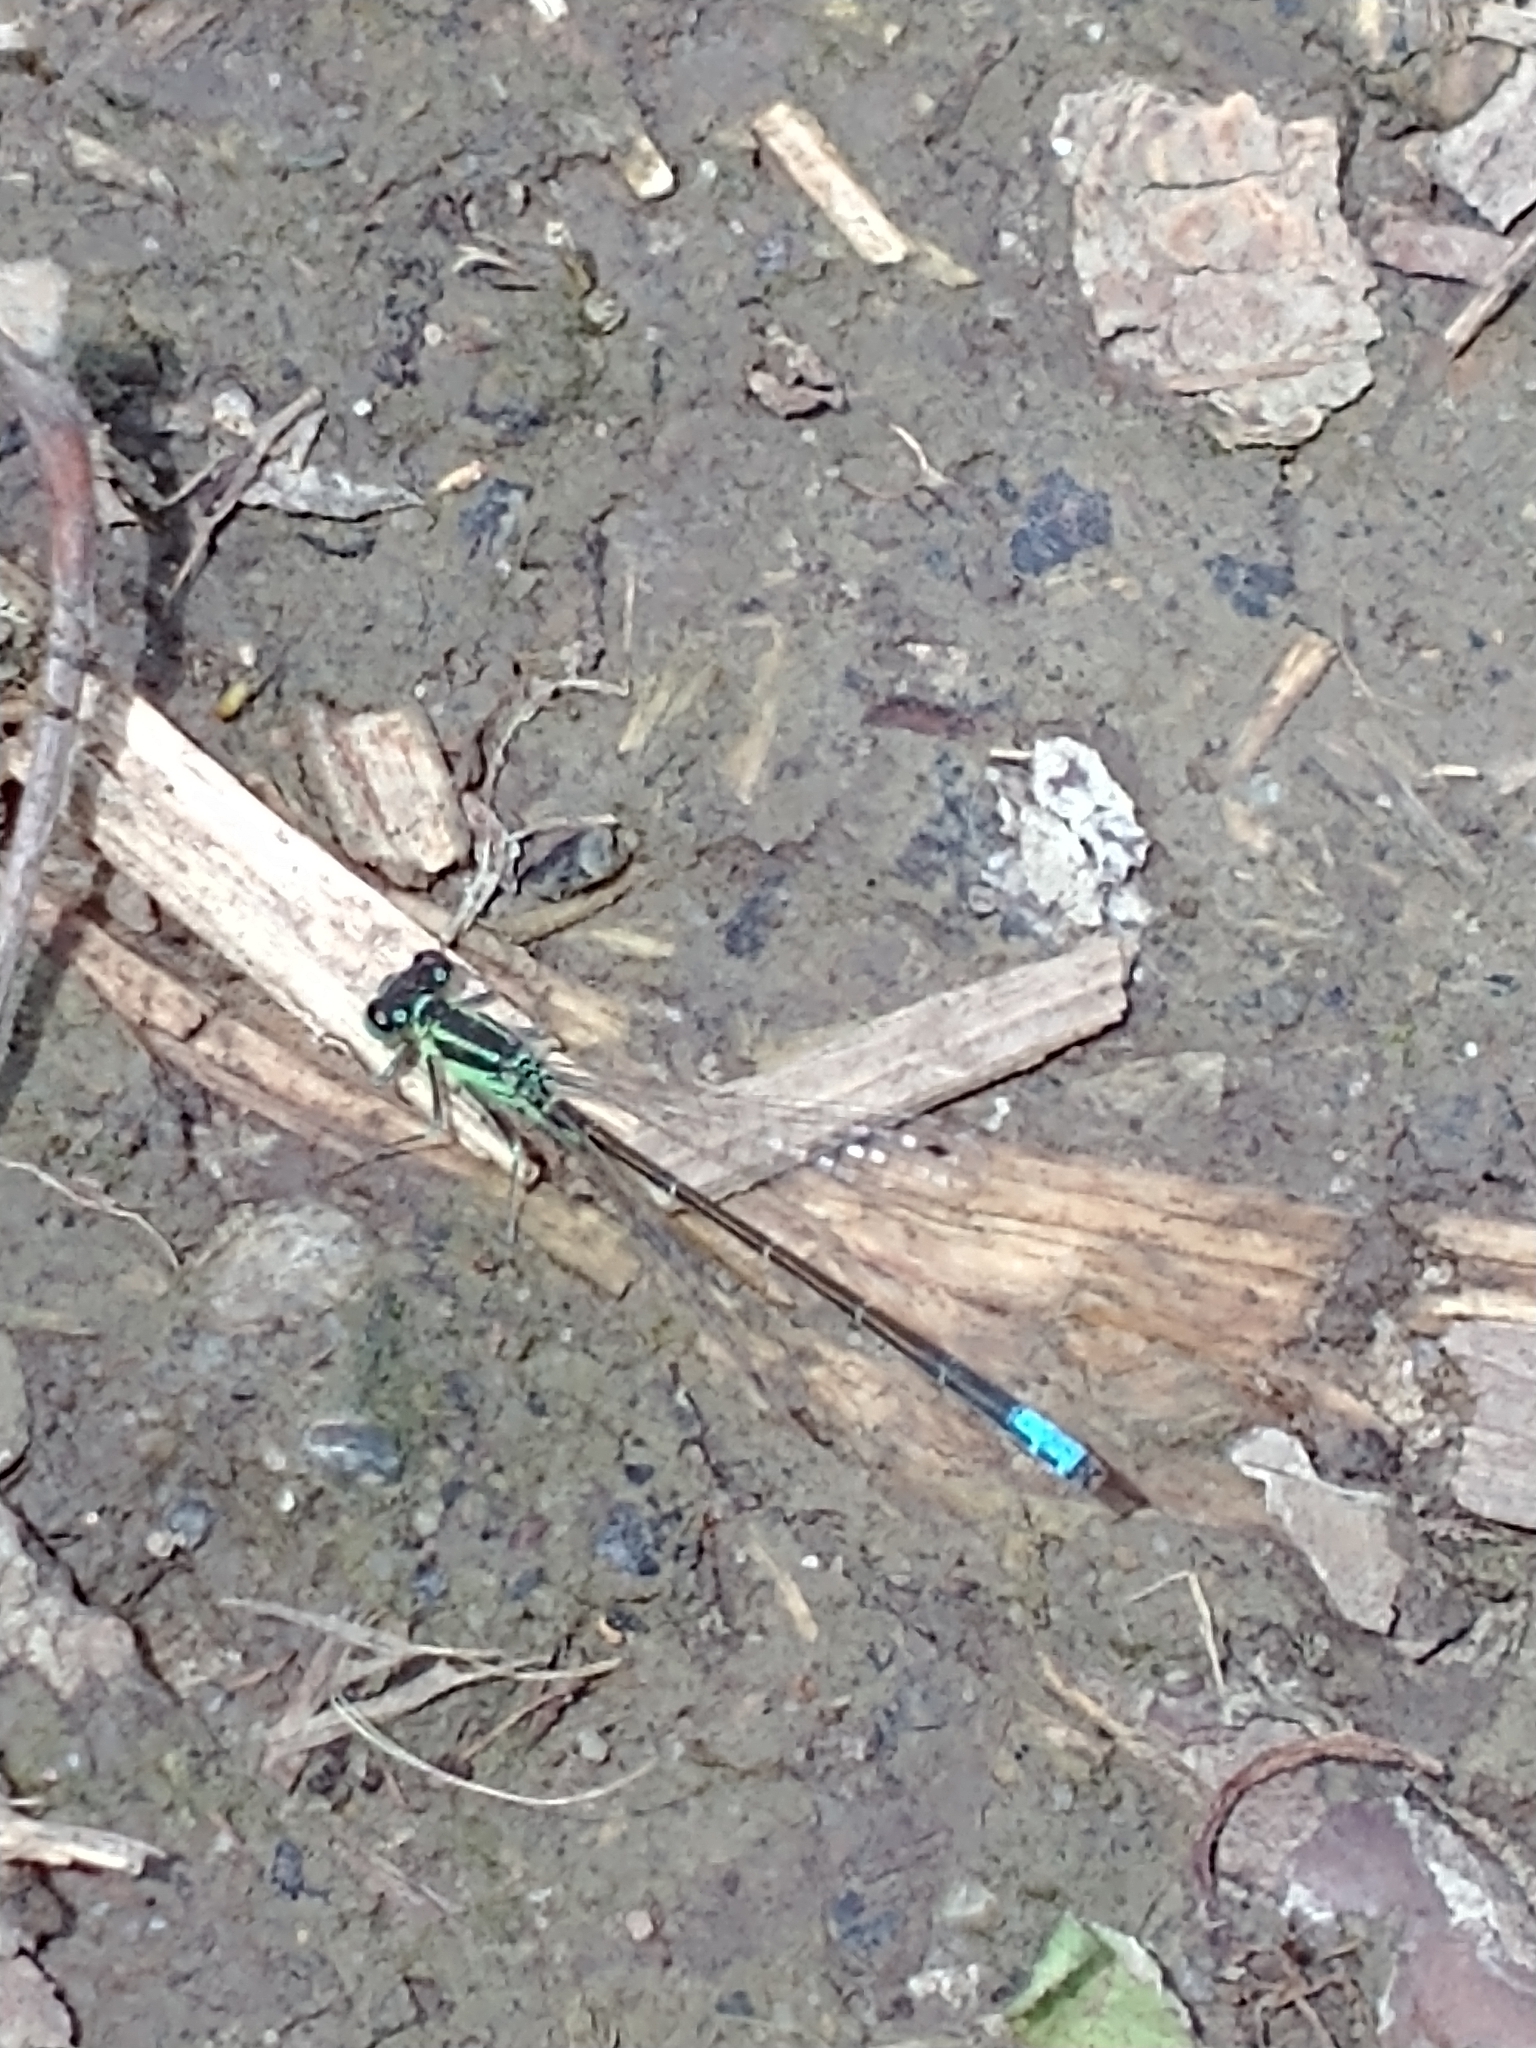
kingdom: Animalia
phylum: Arthropoda
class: Insecta
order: Odonata
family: Coenagrionidae
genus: Ischnura
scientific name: Ischnura verticalis
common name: Eastern forktail
